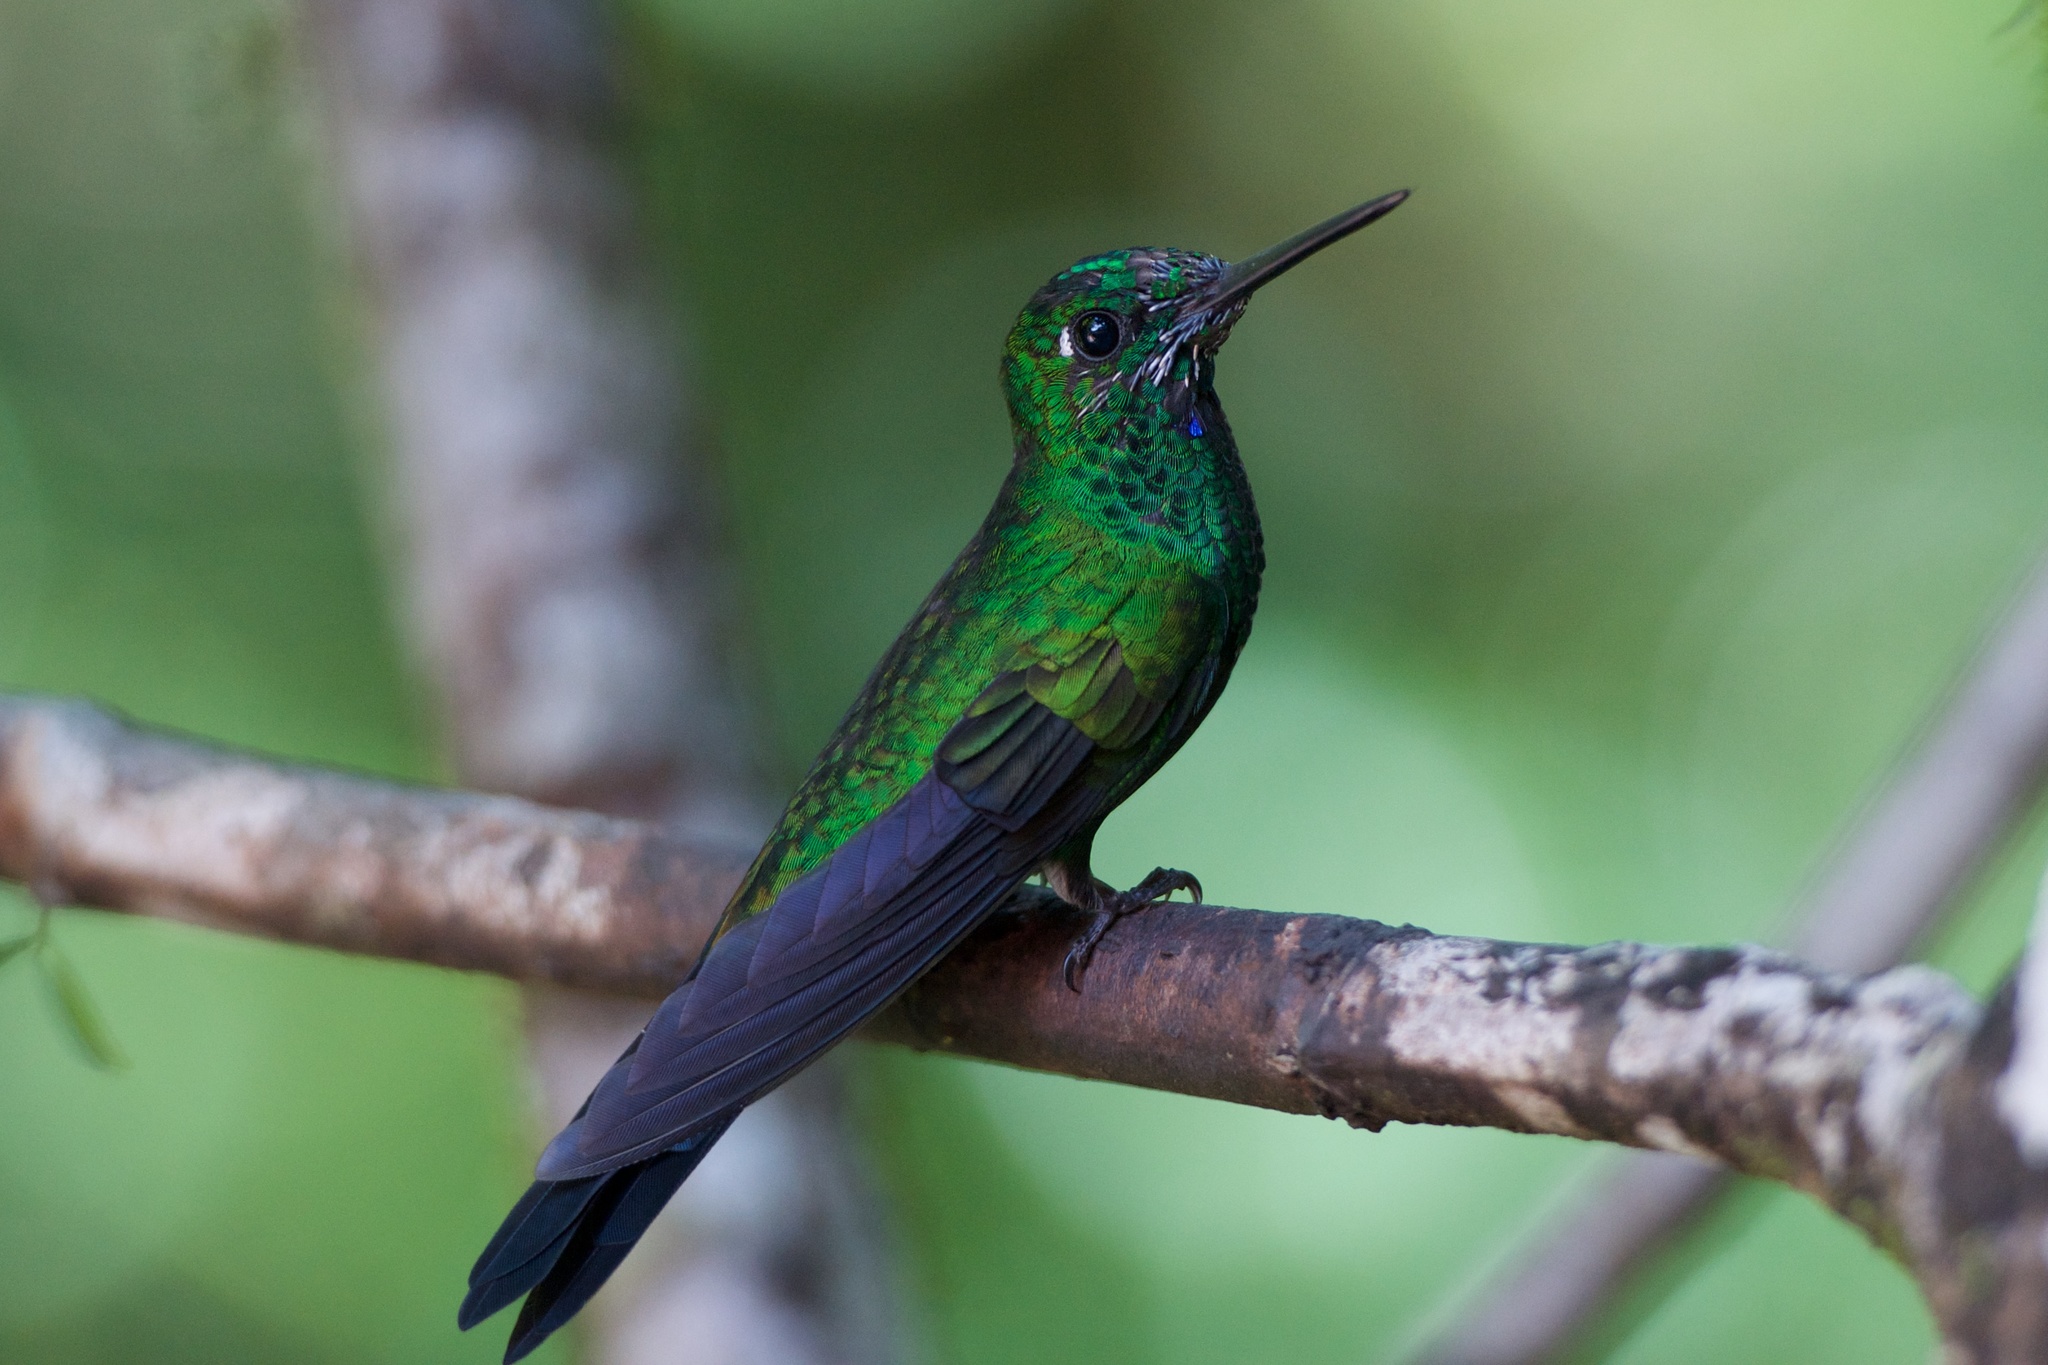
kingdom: Animalia
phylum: Chordata
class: Aves
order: Apodiformes
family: Trochilidae
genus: Heliodoxa
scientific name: Heliodoxa jacula
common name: Green-crowned brilliant
